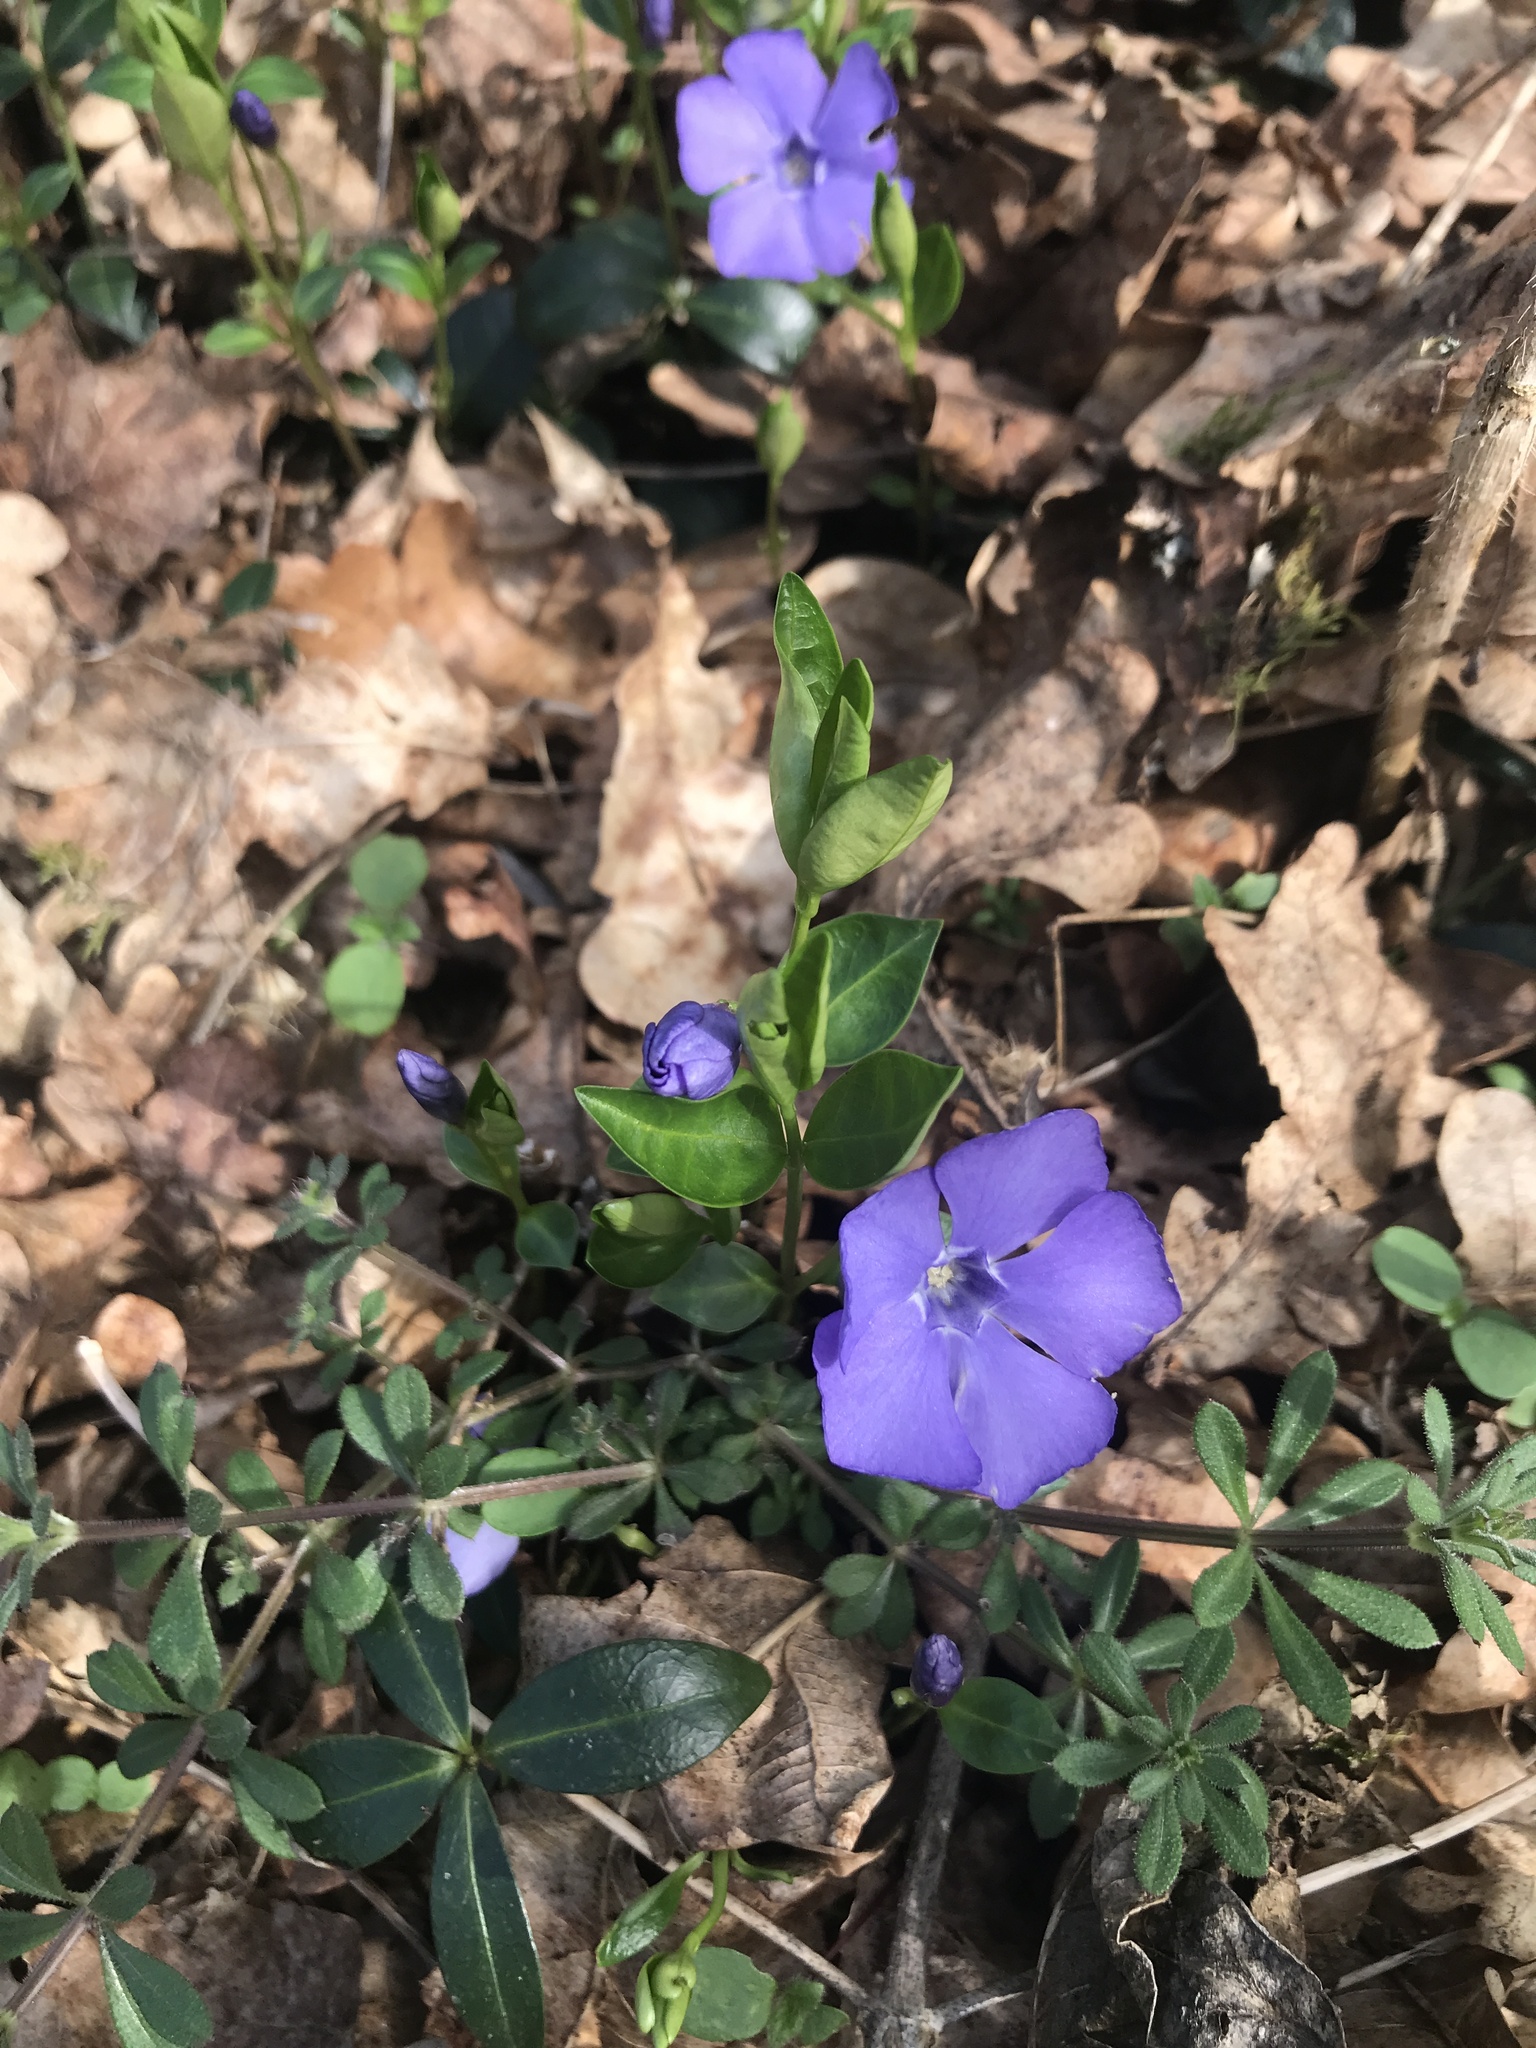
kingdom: Plantae
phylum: Tracheophyta
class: Magnoliopsida
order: Gentianales
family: Apocynaceae
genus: Vinca
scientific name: Vinca minor
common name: Lesser periwinkle
